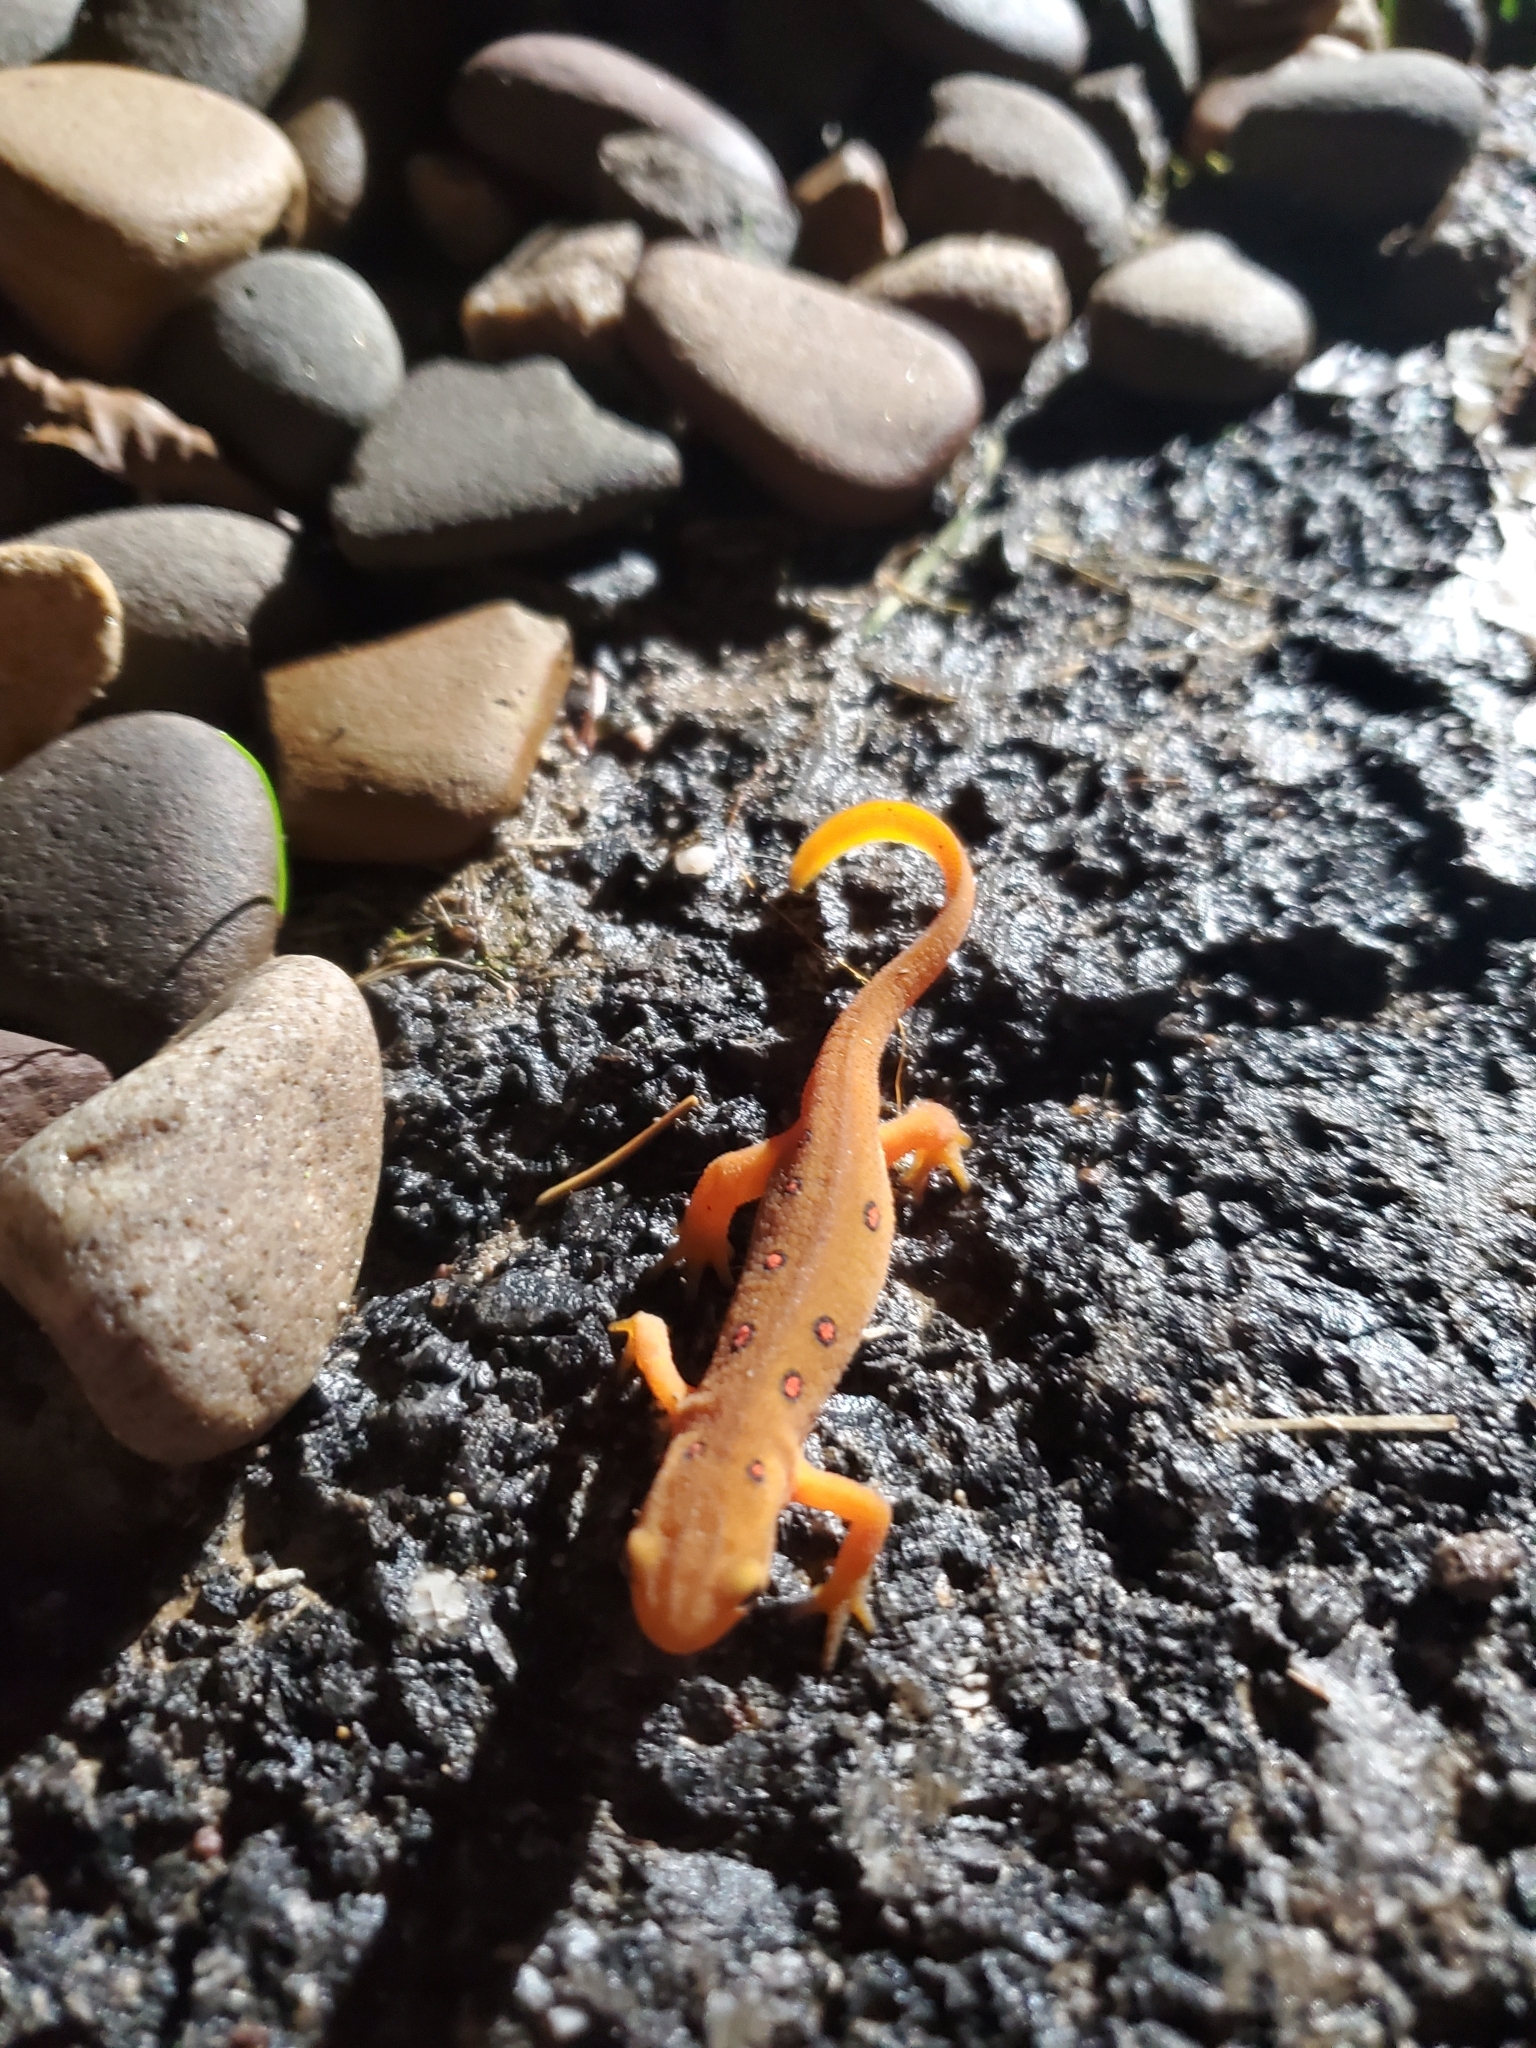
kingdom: Animalia
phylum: Chordata
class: Amphibia
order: Caudata
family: Salamandridae
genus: Notophthalmus
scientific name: Notophthalmus viridescens
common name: Eastern newt
